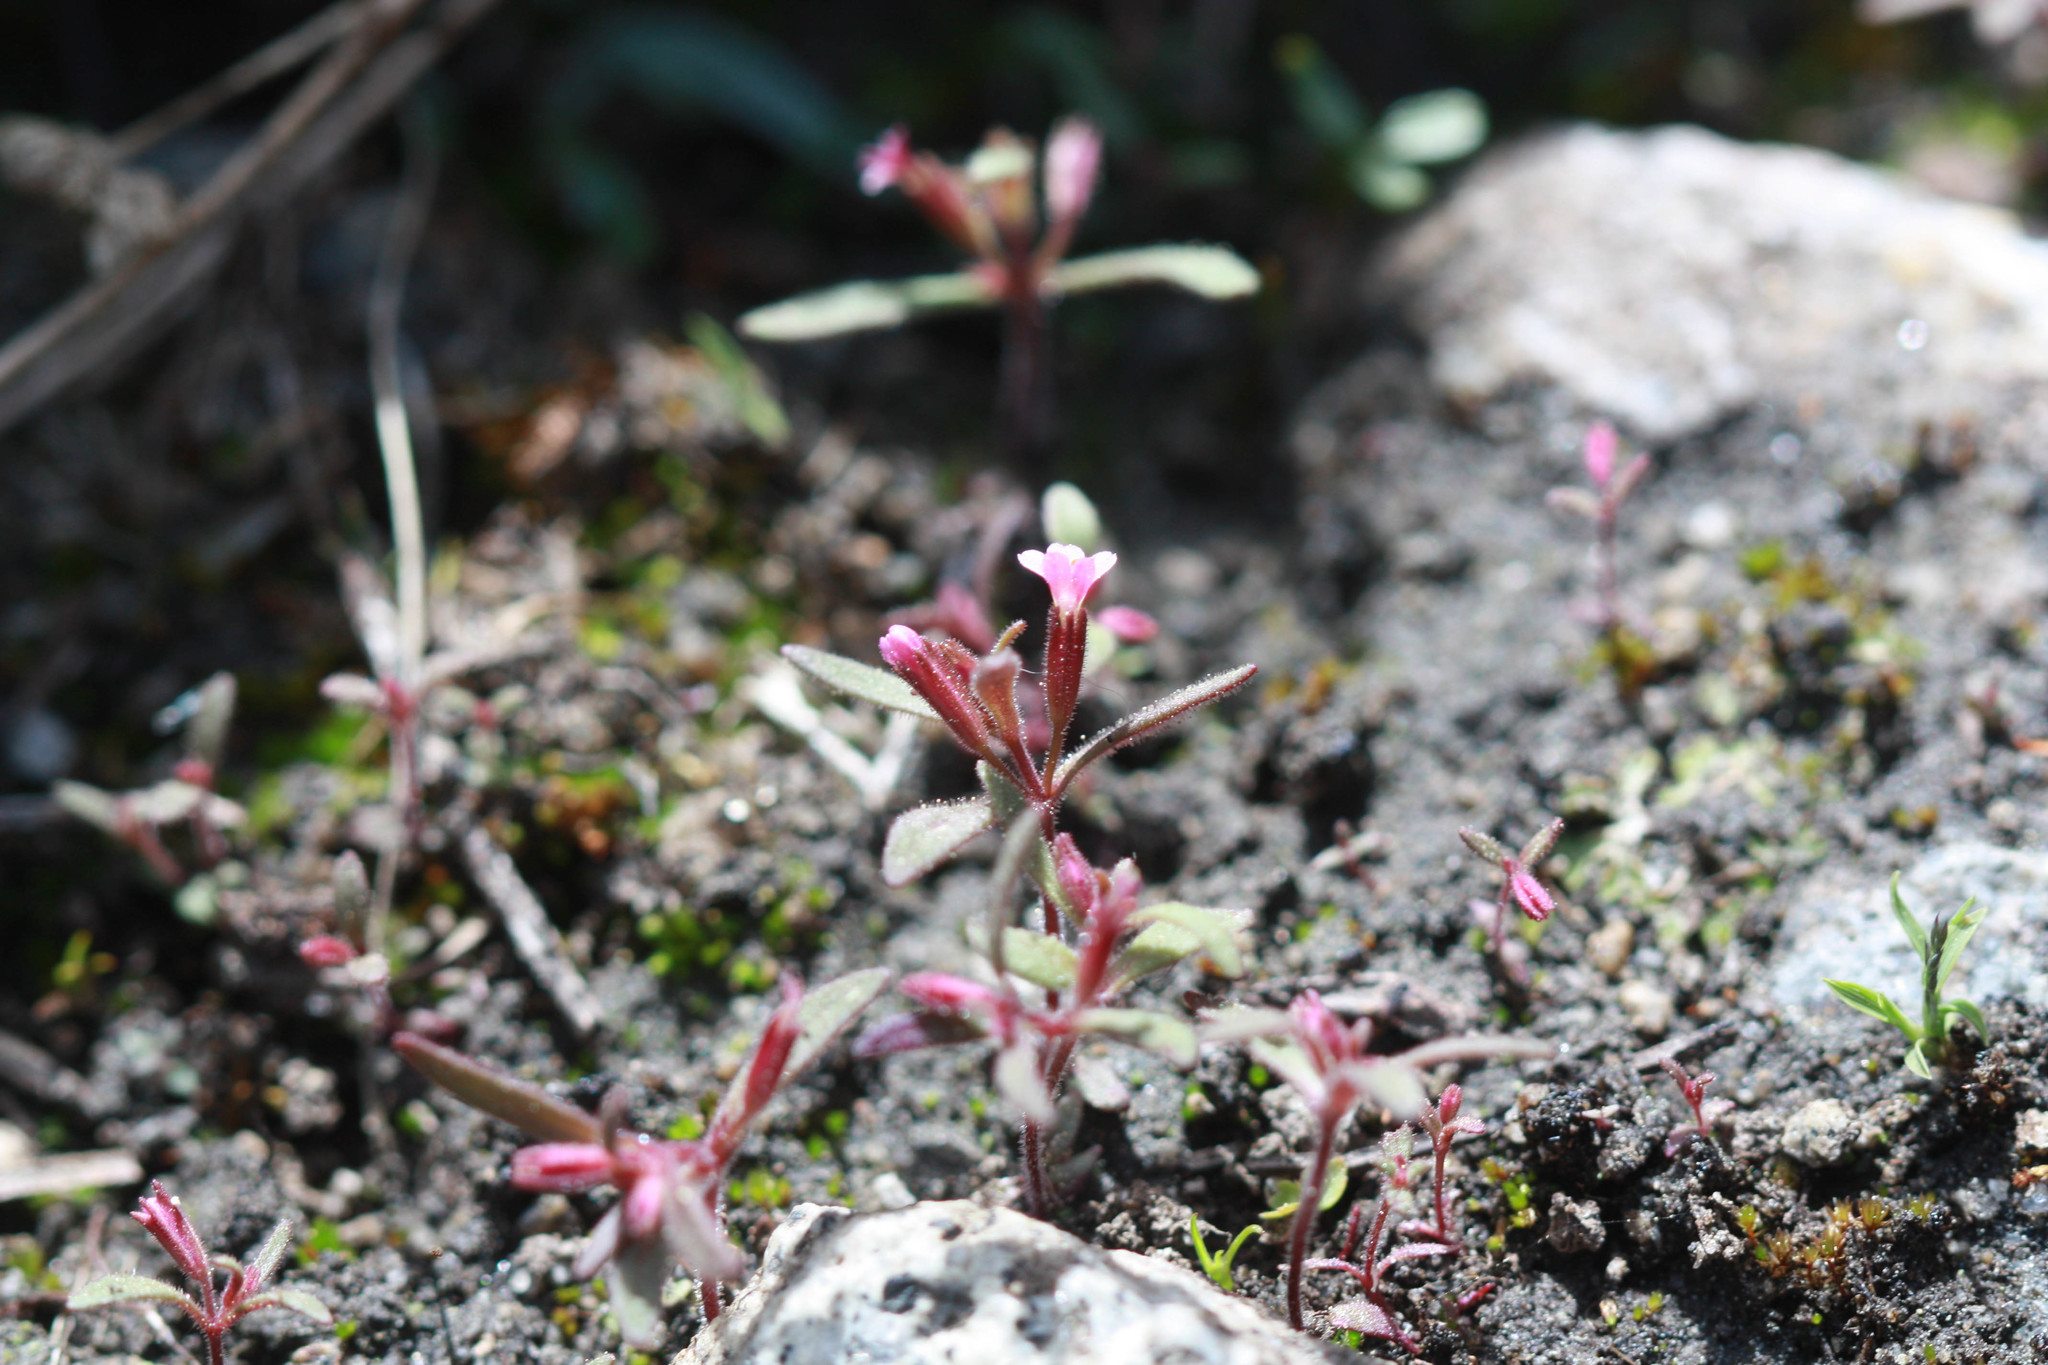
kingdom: Plantae
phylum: Tracheophyta
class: Magnoliopsida
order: Lamiales
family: Phrymaceae
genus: Erythranthe
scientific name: Erythranthe breweri
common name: Brewer's monkeyflower
